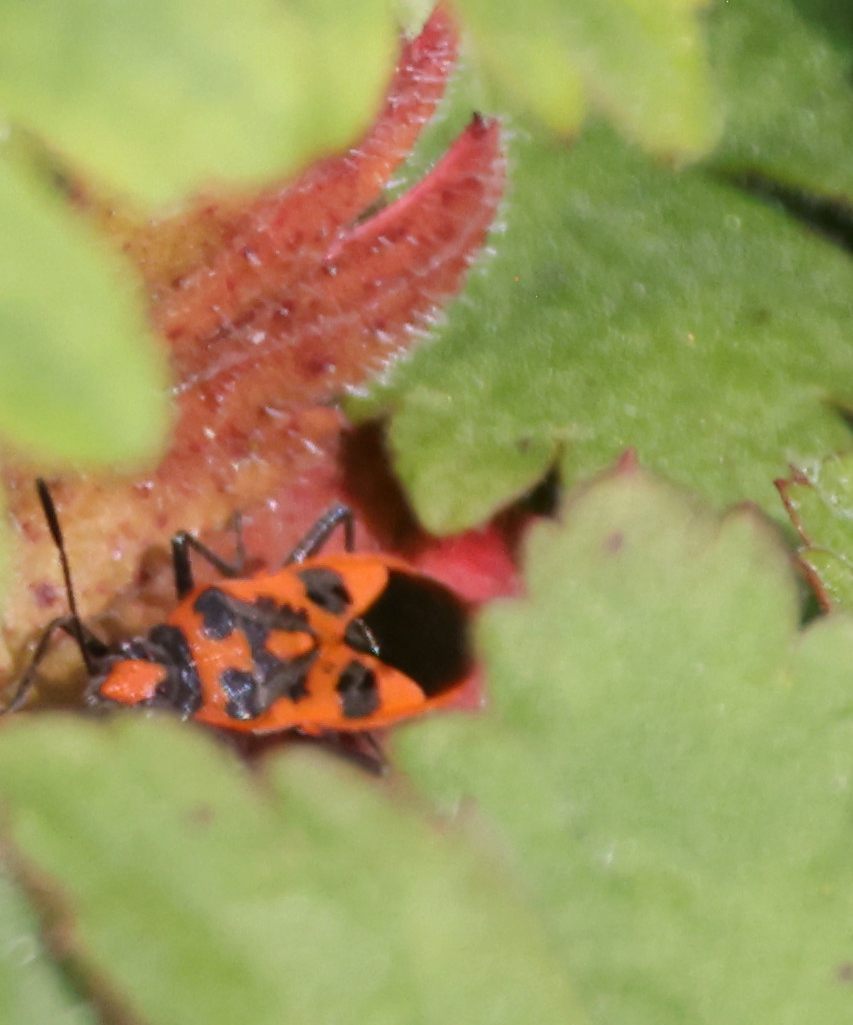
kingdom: Animalia
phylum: Arthropoda
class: Insecta
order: Hemiptera
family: Rhopalidae
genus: Corizus
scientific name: Corizus hyoscyami
